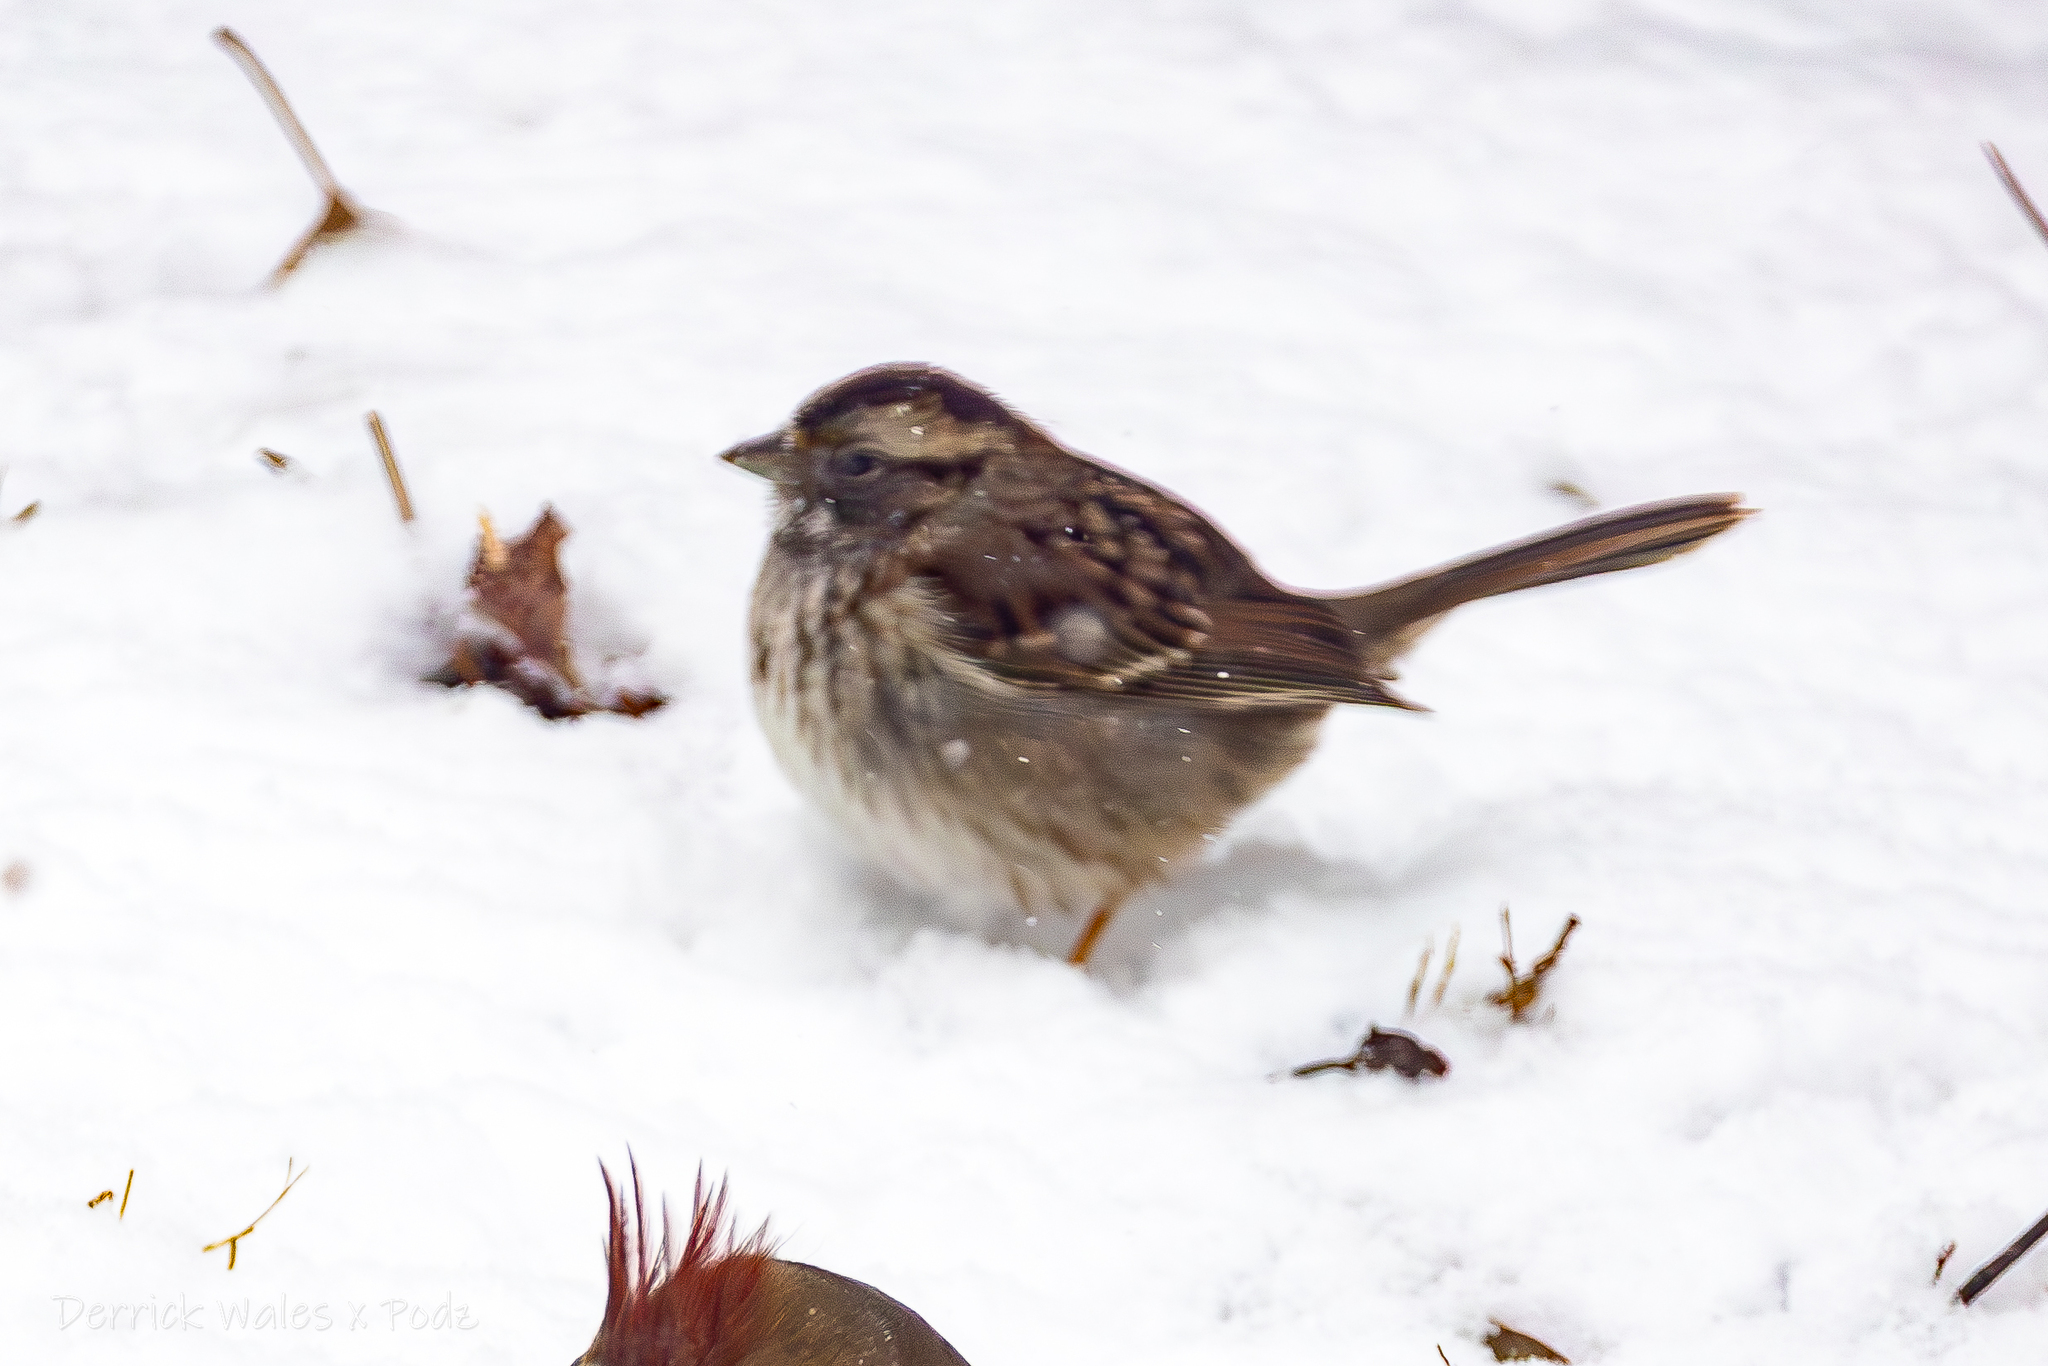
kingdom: Animalia
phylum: Chordata
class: Aves
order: Passeriformes
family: Passerellidae
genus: Zonotrichia
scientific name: Zonotrichia albicollis
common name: White-throated sparrow
